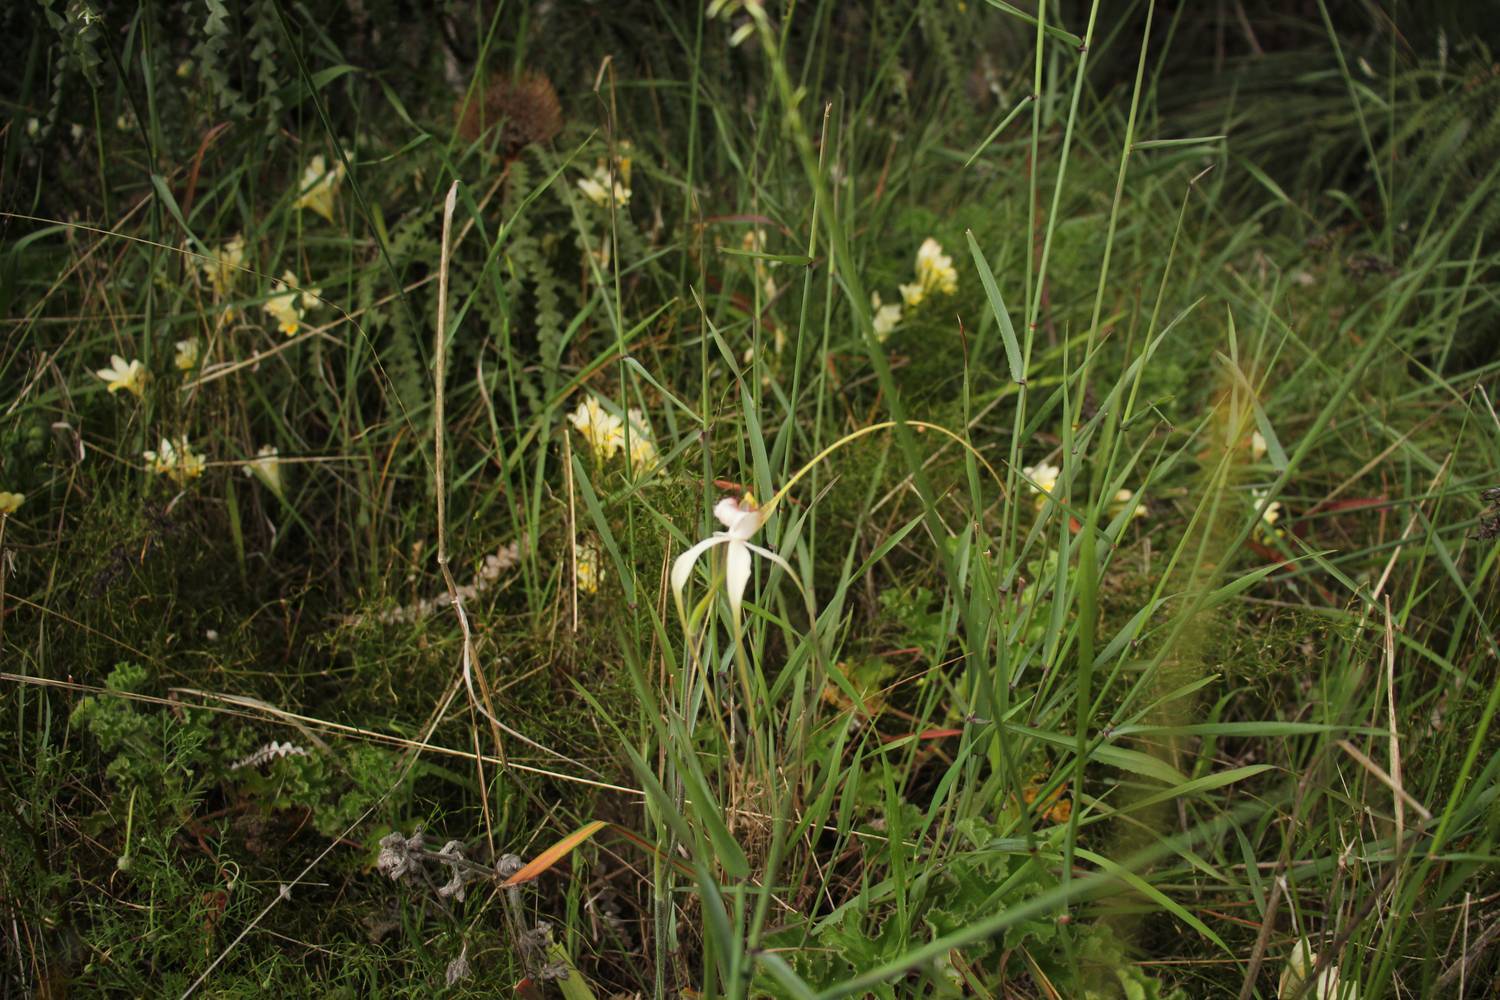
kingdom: Plantae
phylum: Tracheophyta
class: Liliopsida
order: Asparagales
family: Orchidaceae
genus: Caladenia
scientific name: Caladenia longicauda
